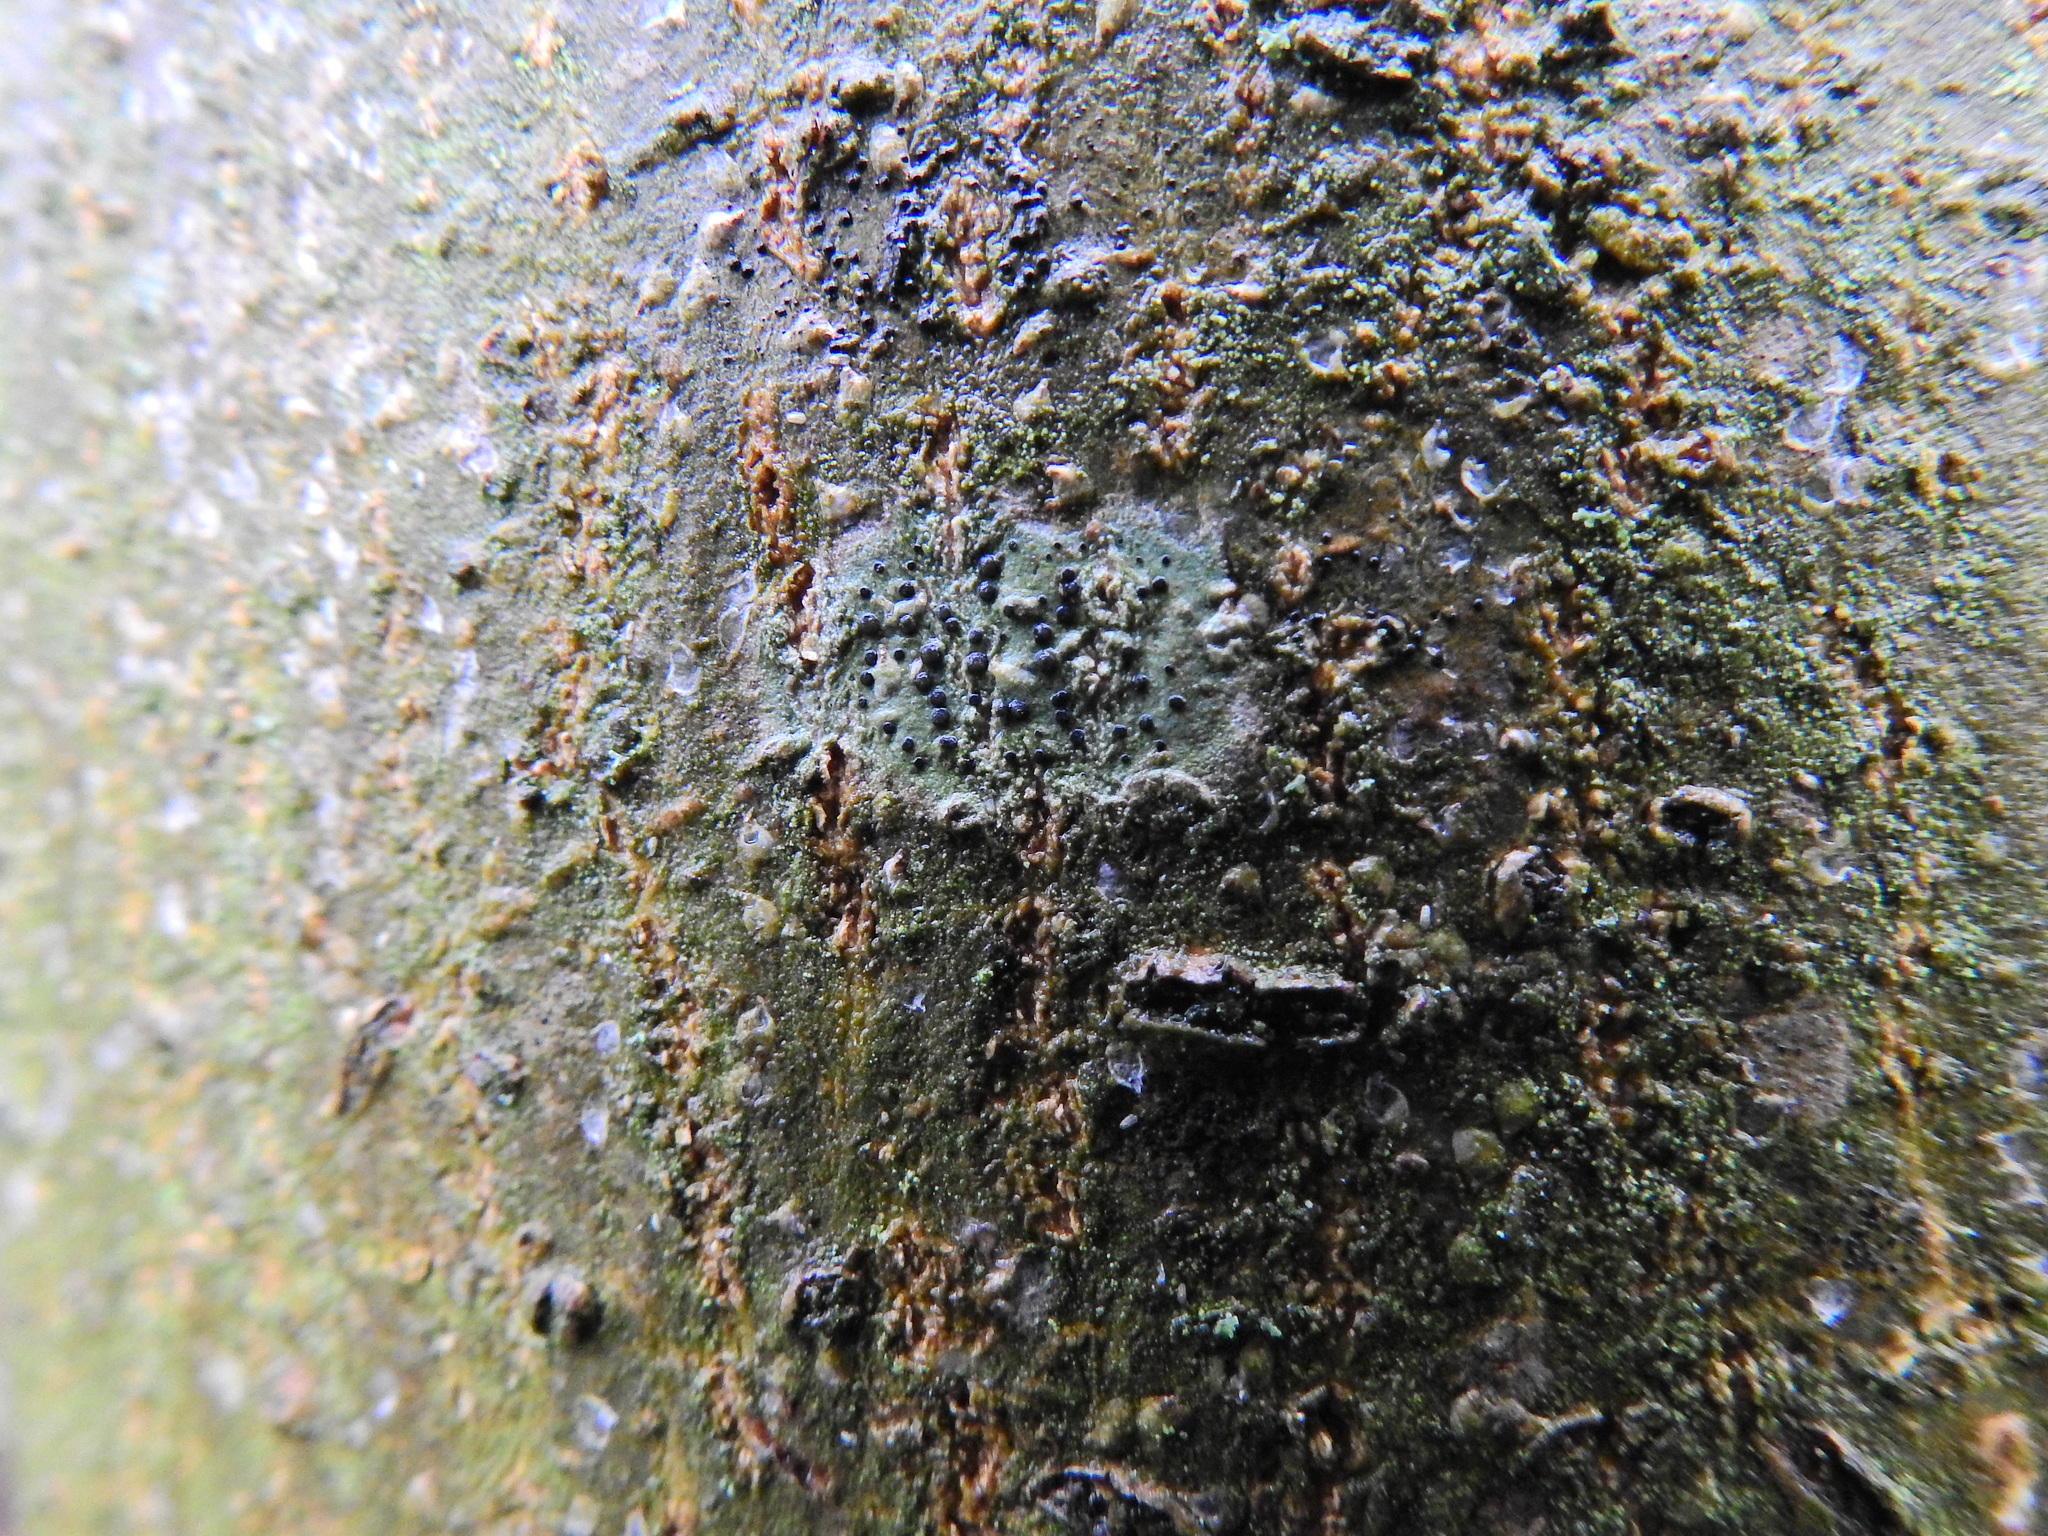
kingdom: Fungi
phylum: Ascomycota
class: Lecanoromycetes
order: Lecanorales
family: Lecanoraceae
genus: Lecidella
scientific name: Lecidella elaeochroma
